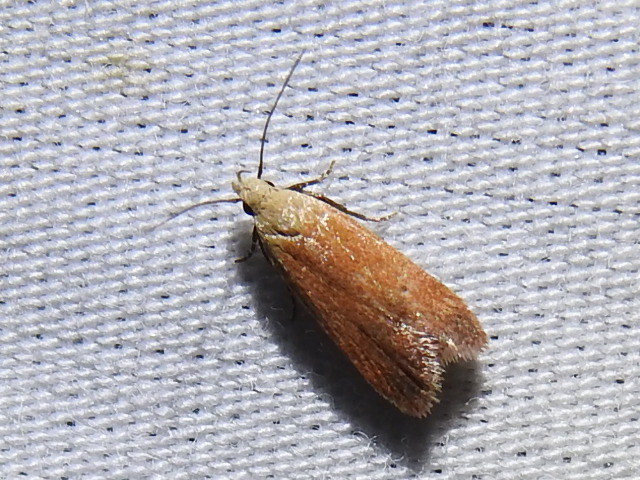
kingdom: Animalia
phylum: Arthropoda
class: Insecta
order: Lepidoptera
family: Gelechiidae
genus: Anacampsis
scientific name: Anacampsis fullonella
